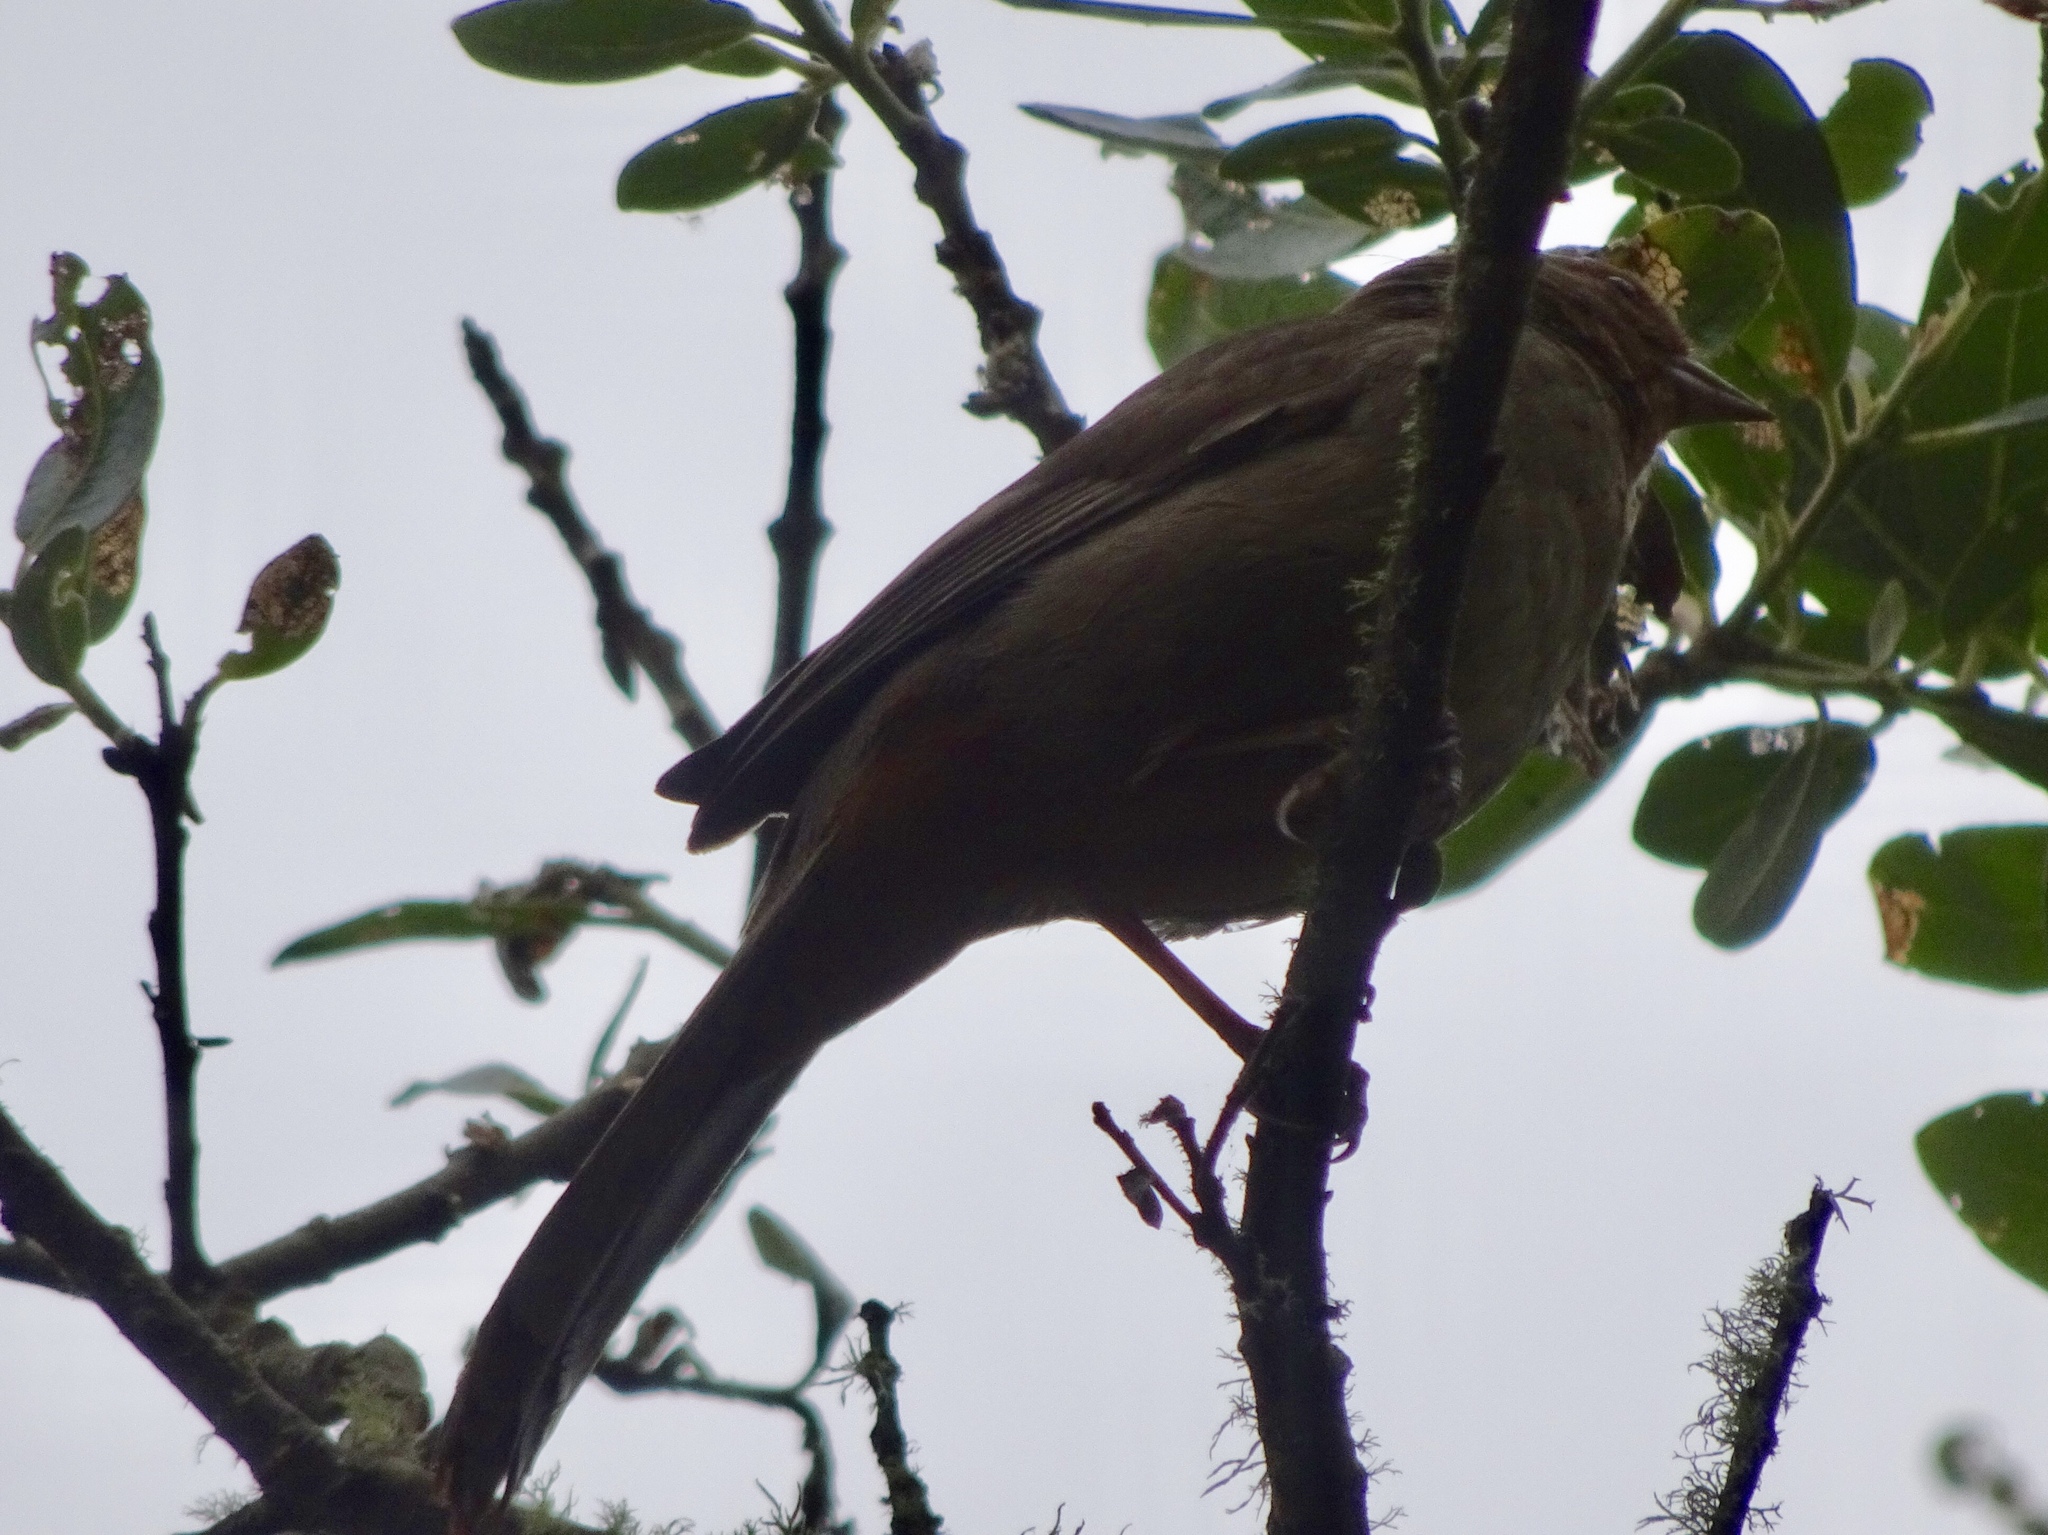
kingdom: Animalia
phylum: Chordata
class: Aves
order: Passeriformes
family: Passerellidae
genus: Melozone
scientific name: Melozone crissalis
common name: California towhee
